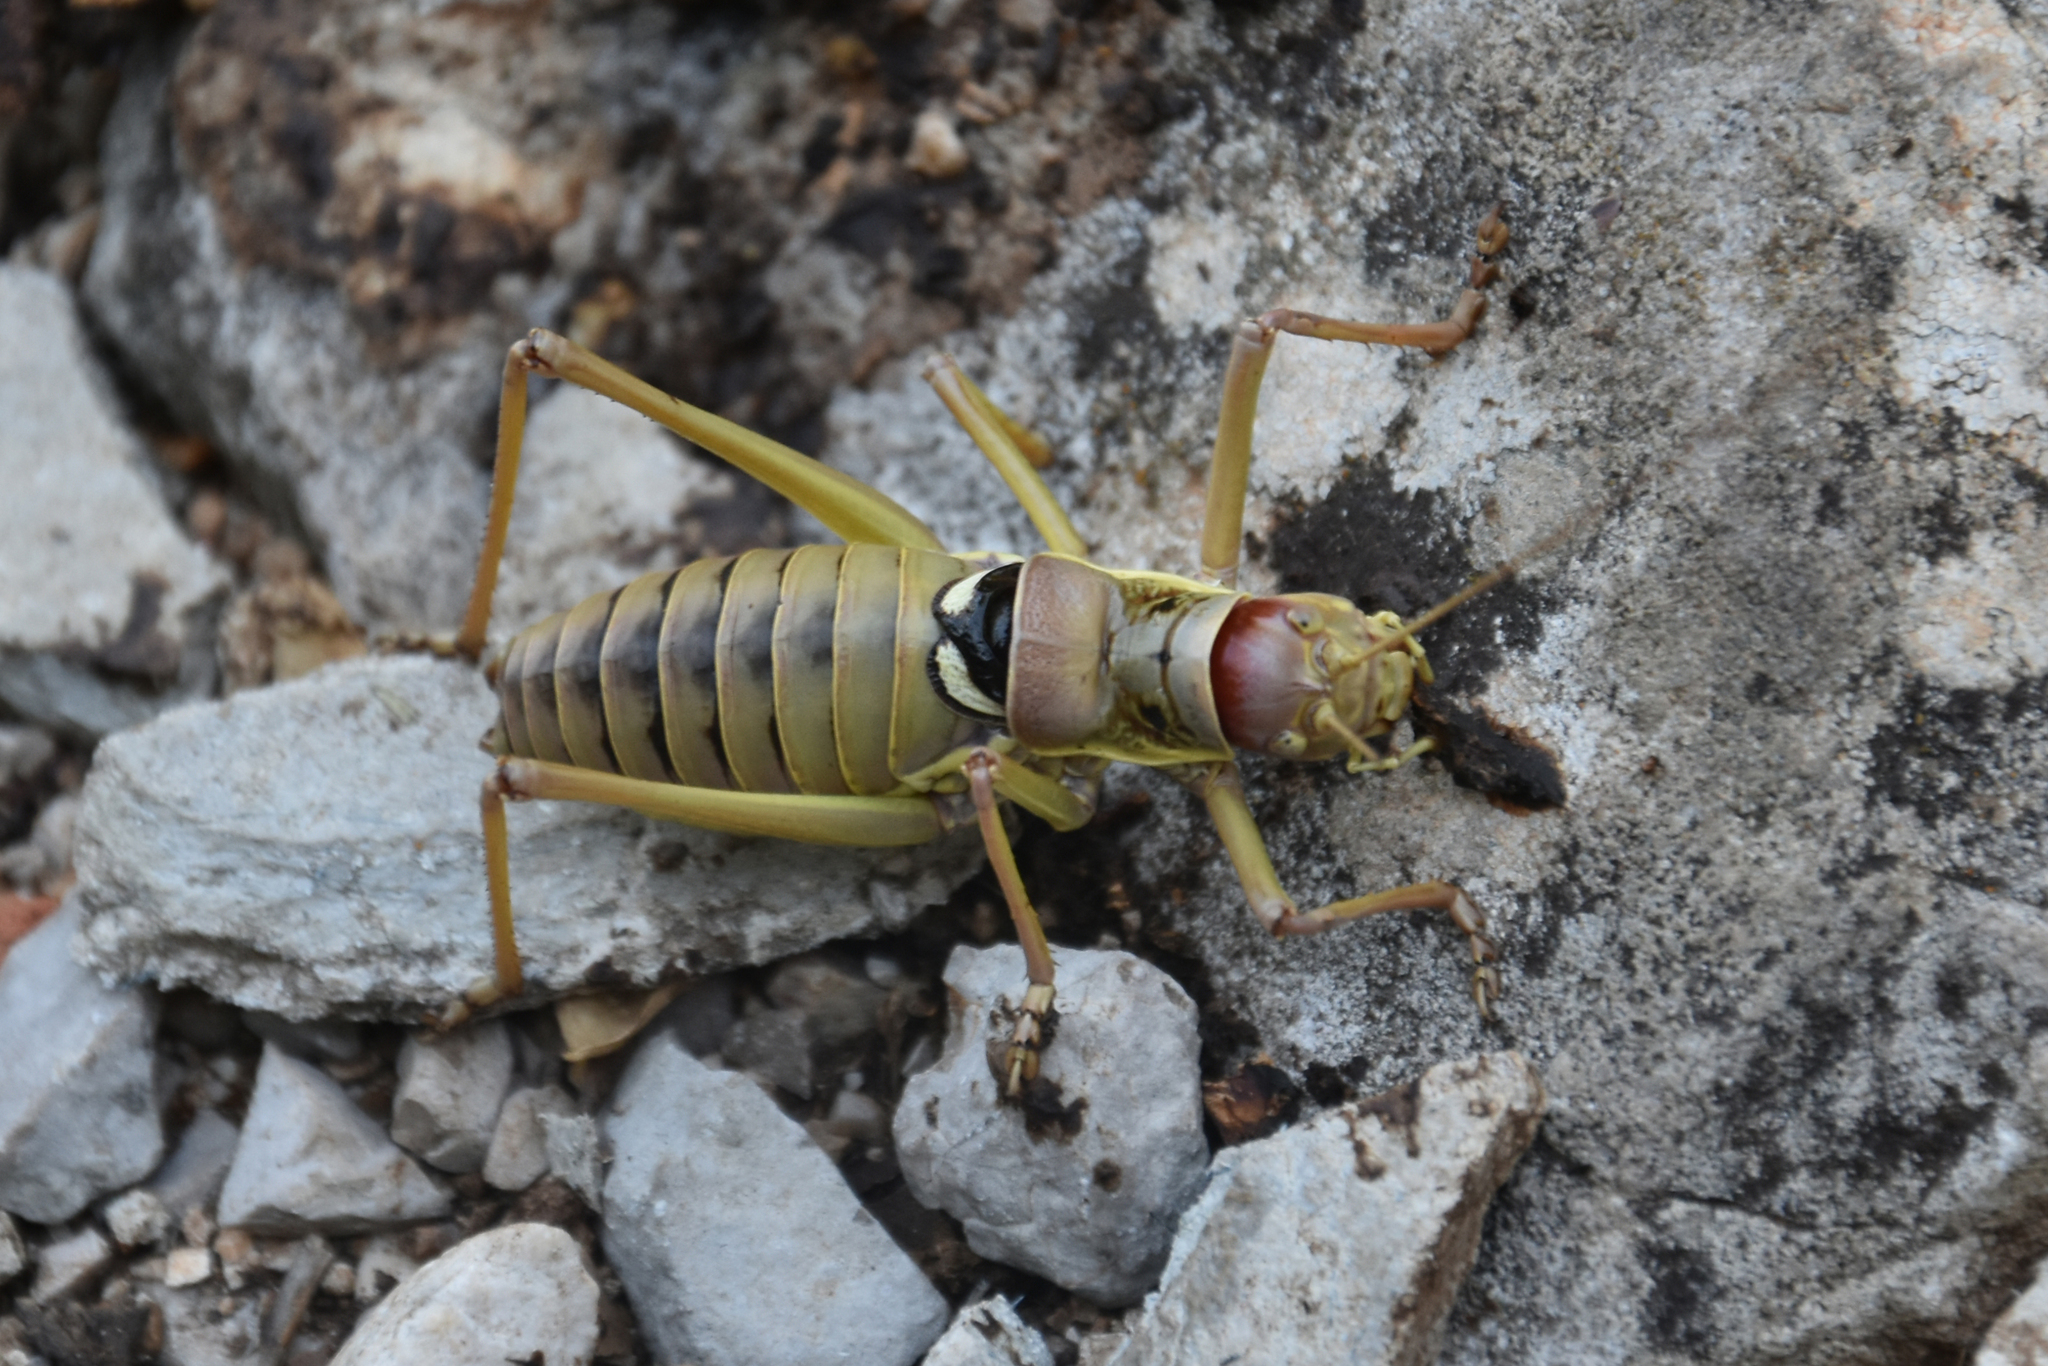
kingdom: Animalia
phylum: Arthropoda
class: Insecta
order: Orthoptera
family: Tettigoniidae
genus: Dinarippiger
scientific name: Dinarippiger discoidalis
